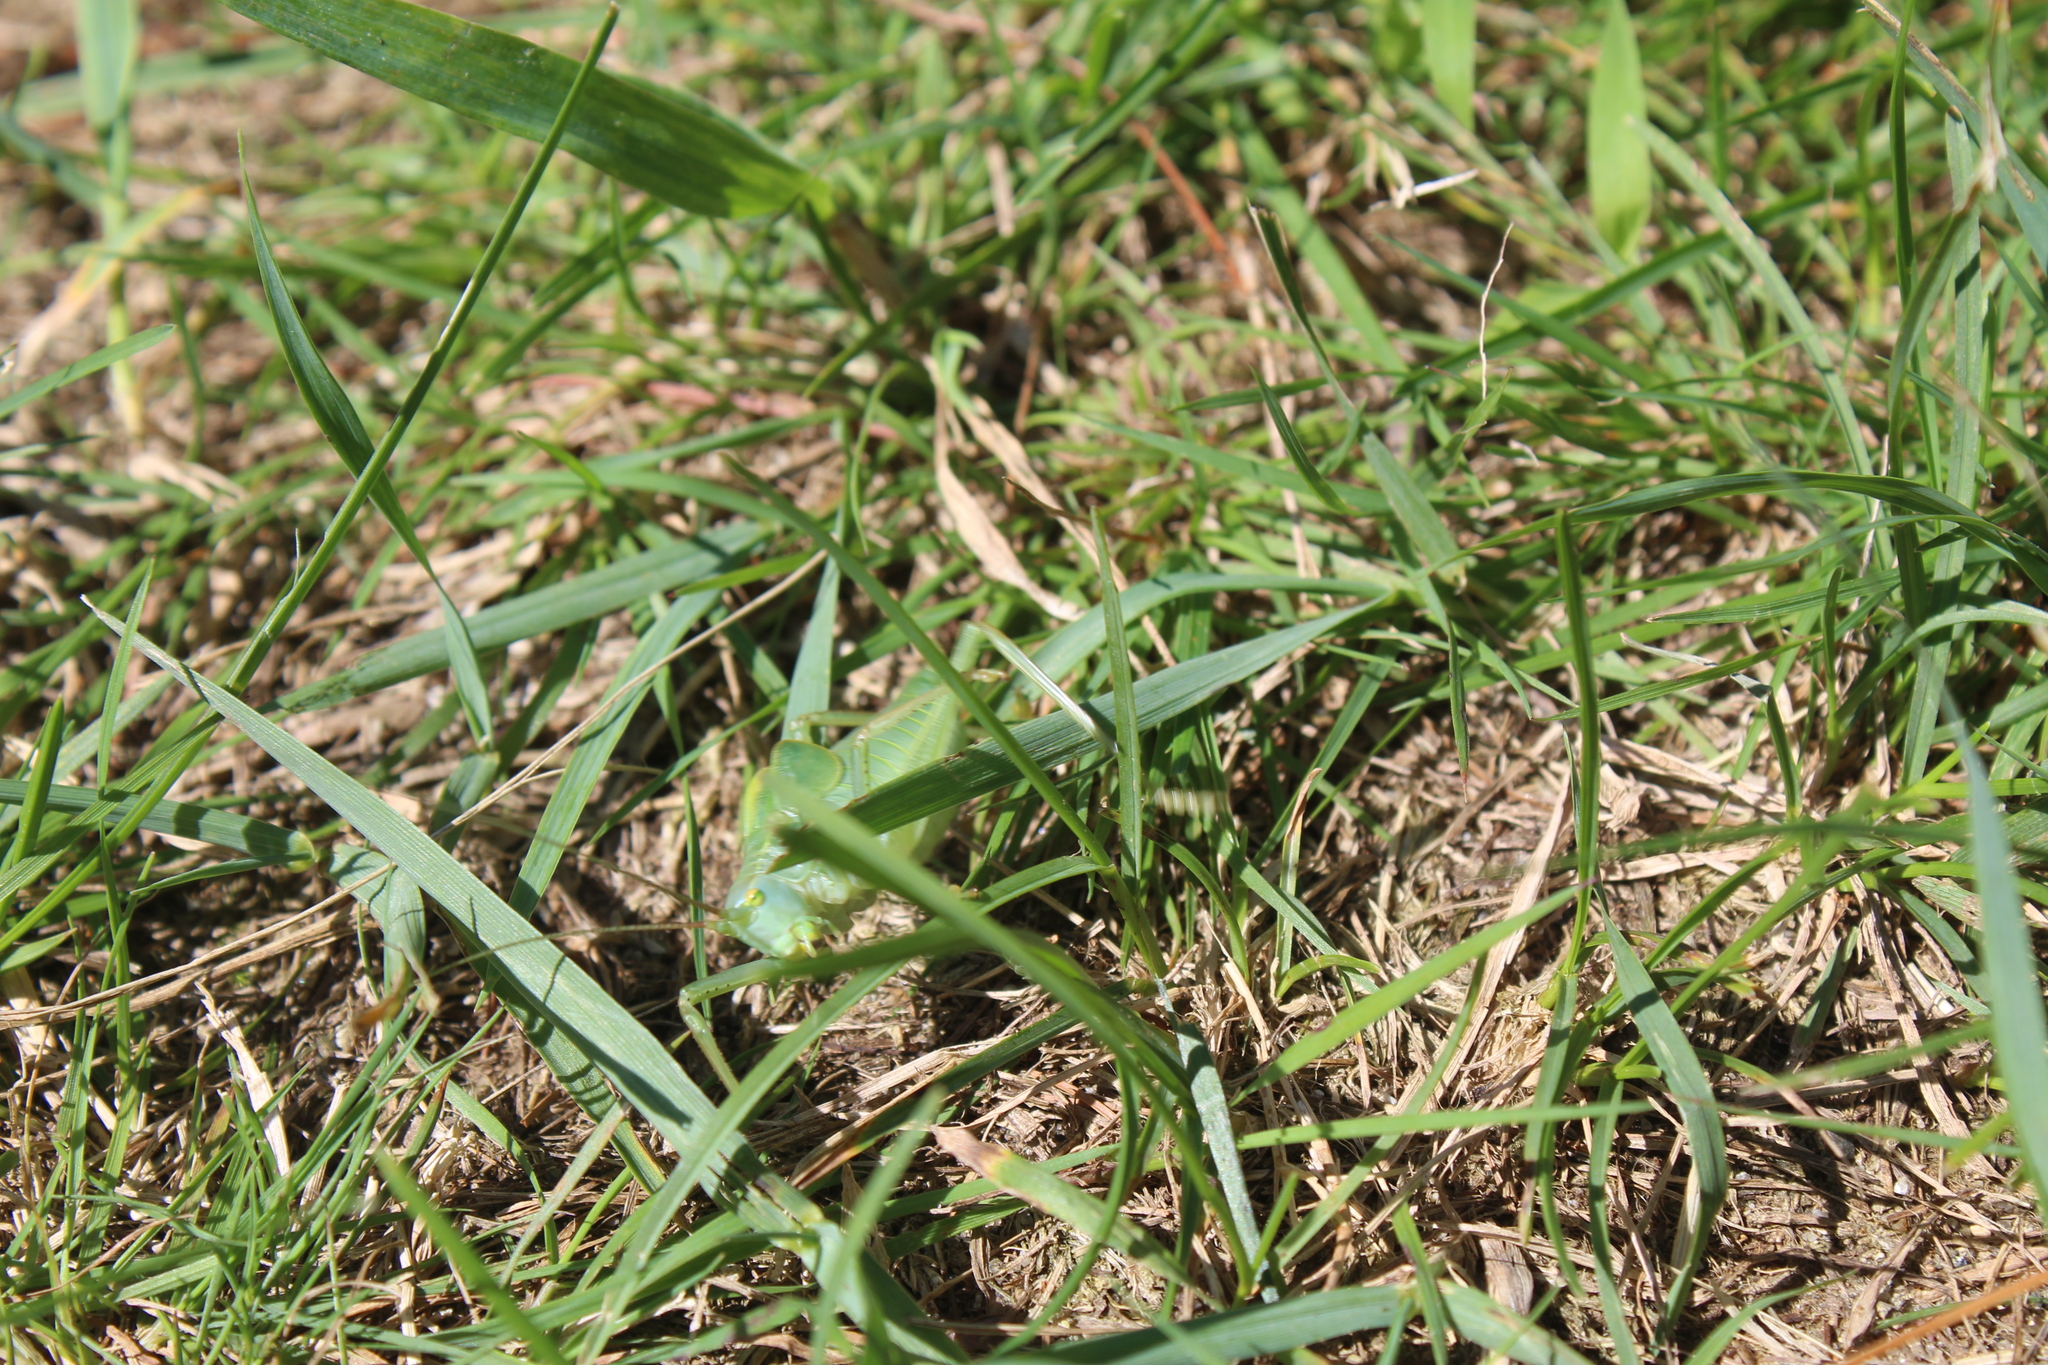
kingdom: Animalia
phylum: Arthropoda
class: Insecta
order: Orthoptera
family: Tettigoniidae
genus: Pterophylla
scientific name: Pterophylla camellifolia
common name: Common true katydid
